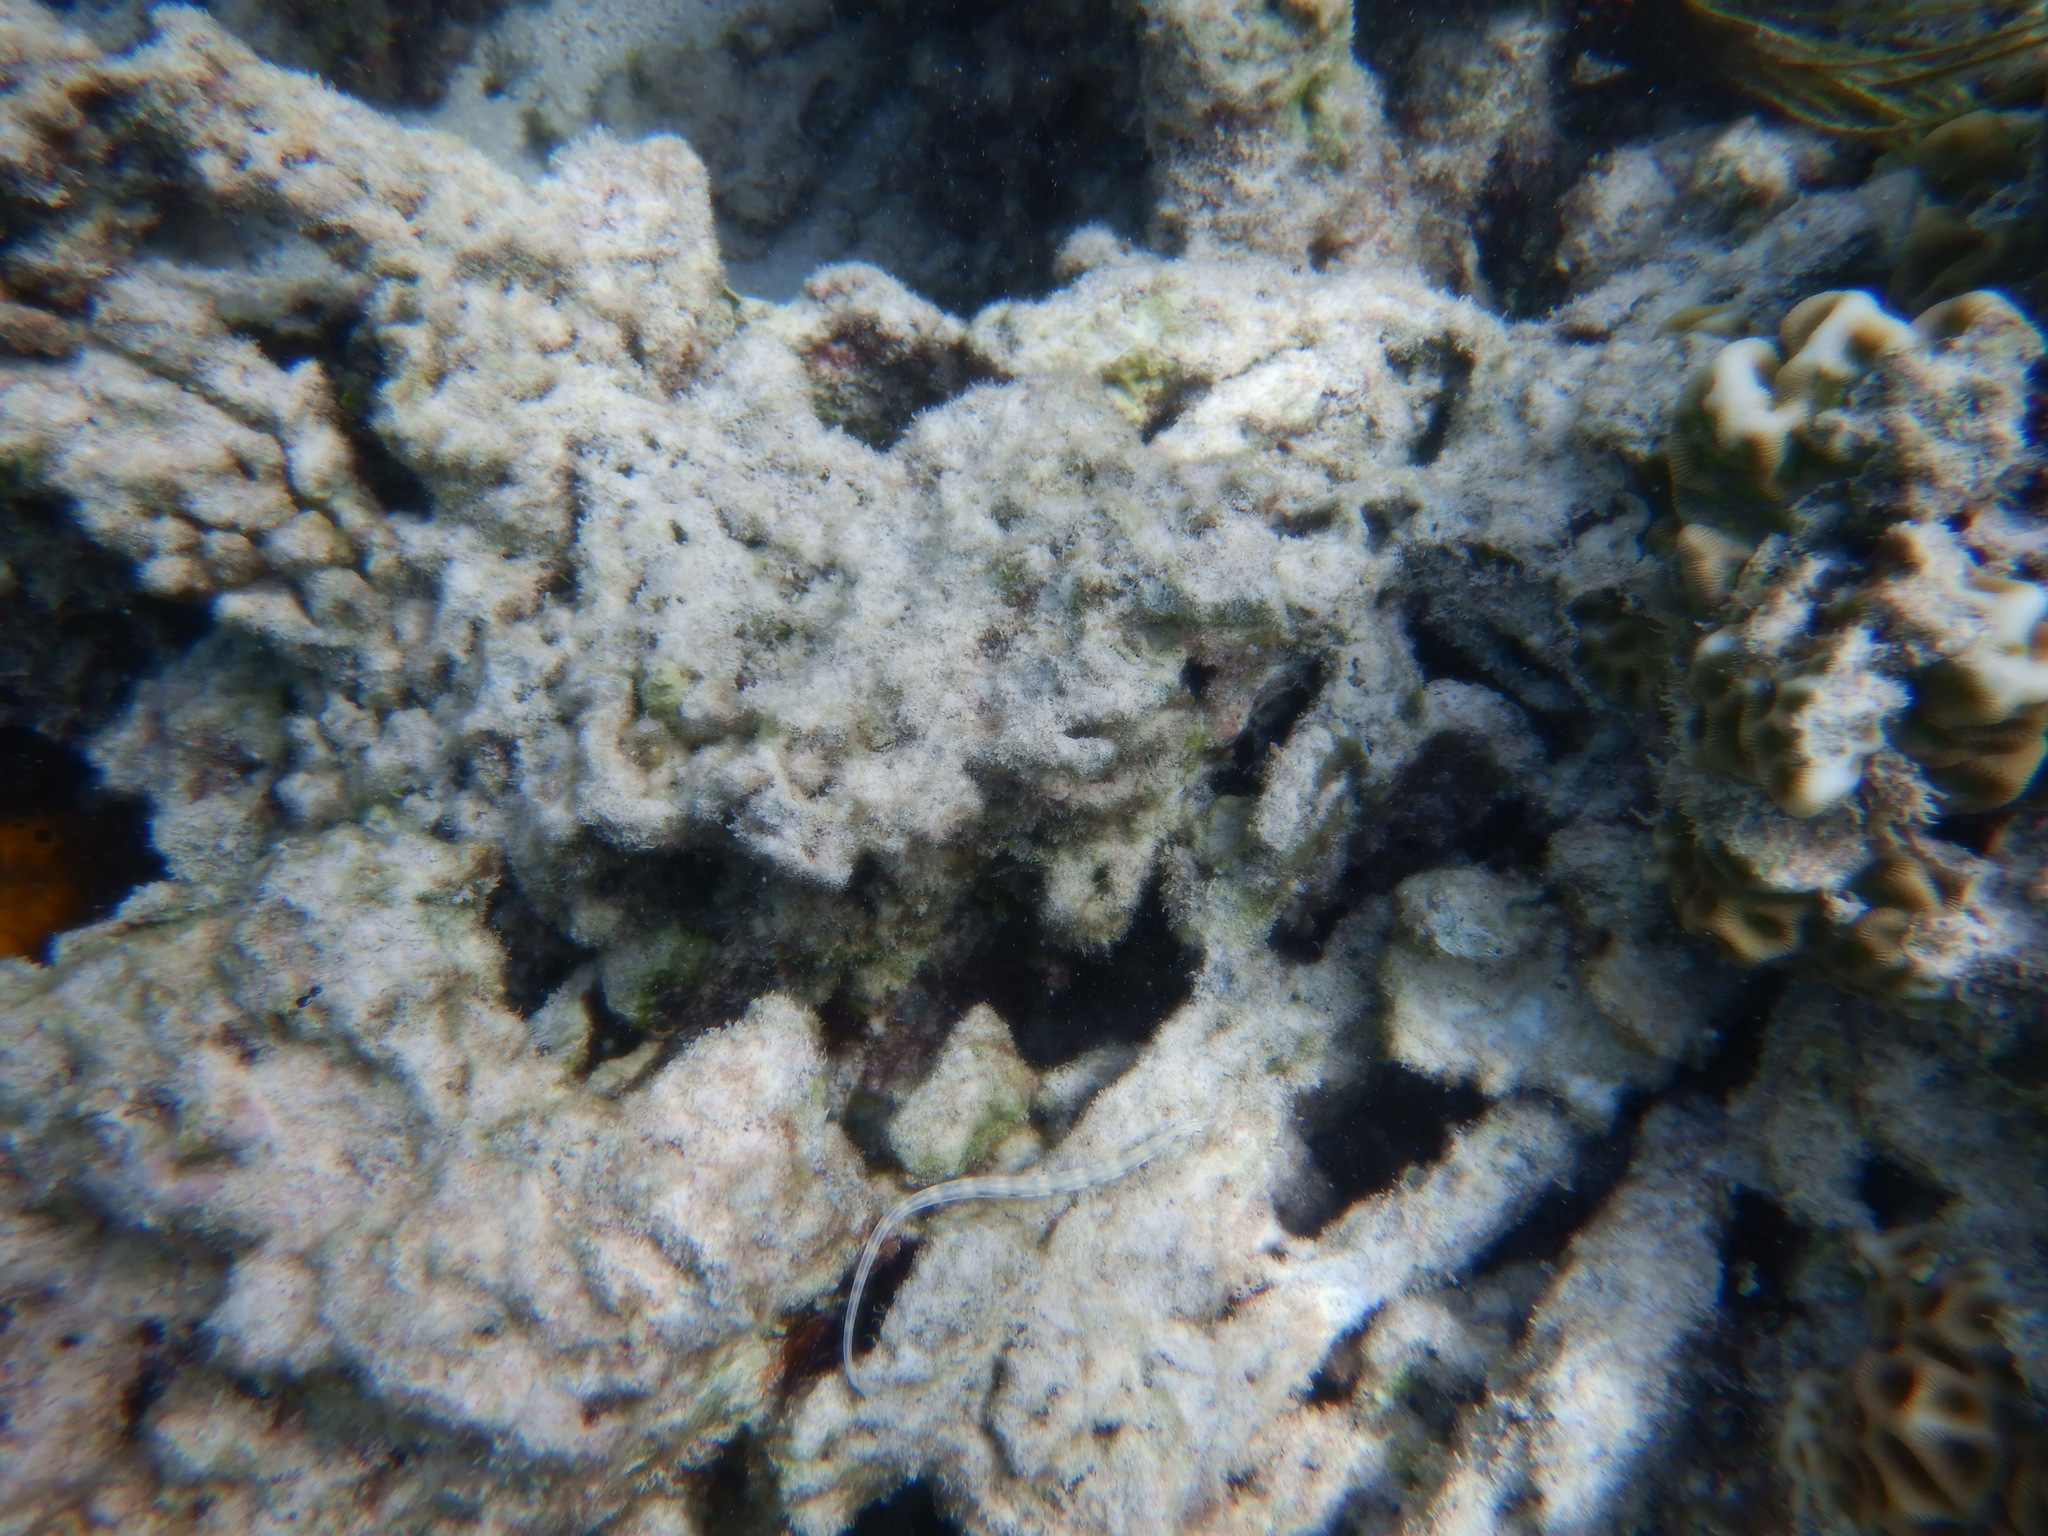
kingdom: Animalia
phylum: Chordata
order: Syngnathiformes
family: Syngnathidae
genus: Corythoichthys
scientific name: Corythoichthys haematopterus
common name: Bloodspot pipefish
